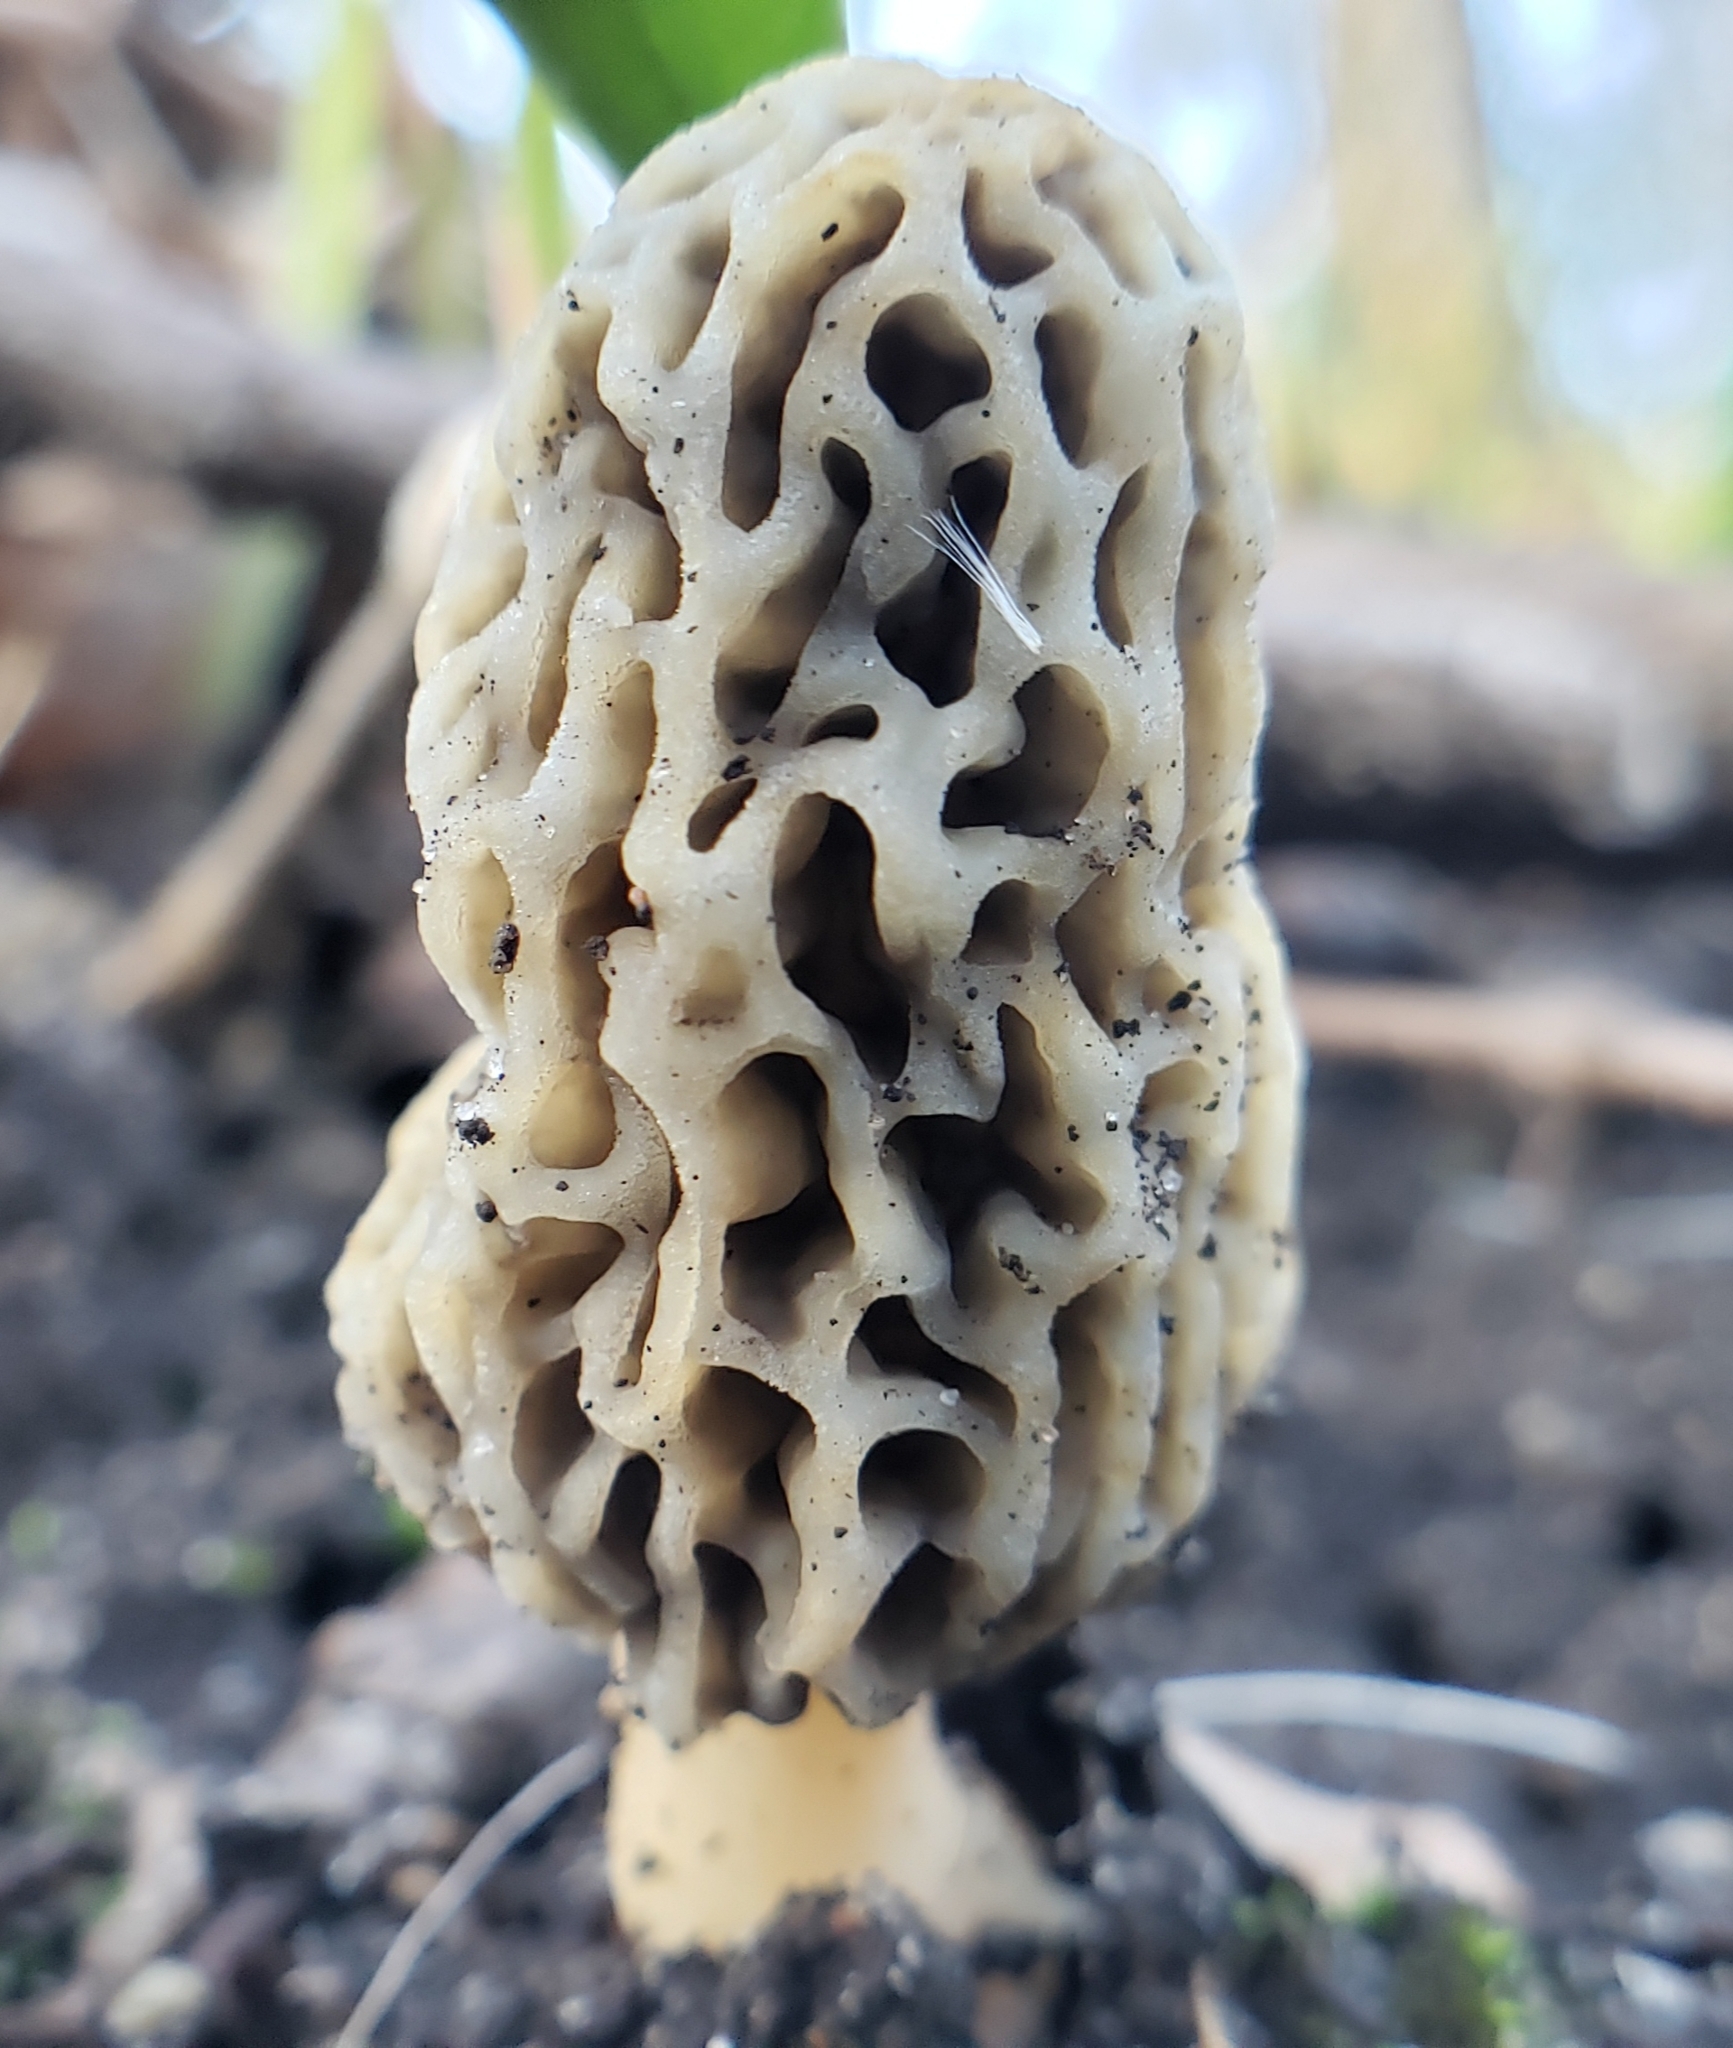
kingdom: Fungi
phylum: Ascomycota
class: Pezizomycetes
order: Pezizales
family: Morchellaceae
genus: Morchella
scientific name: Morchella americana
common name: White morel
